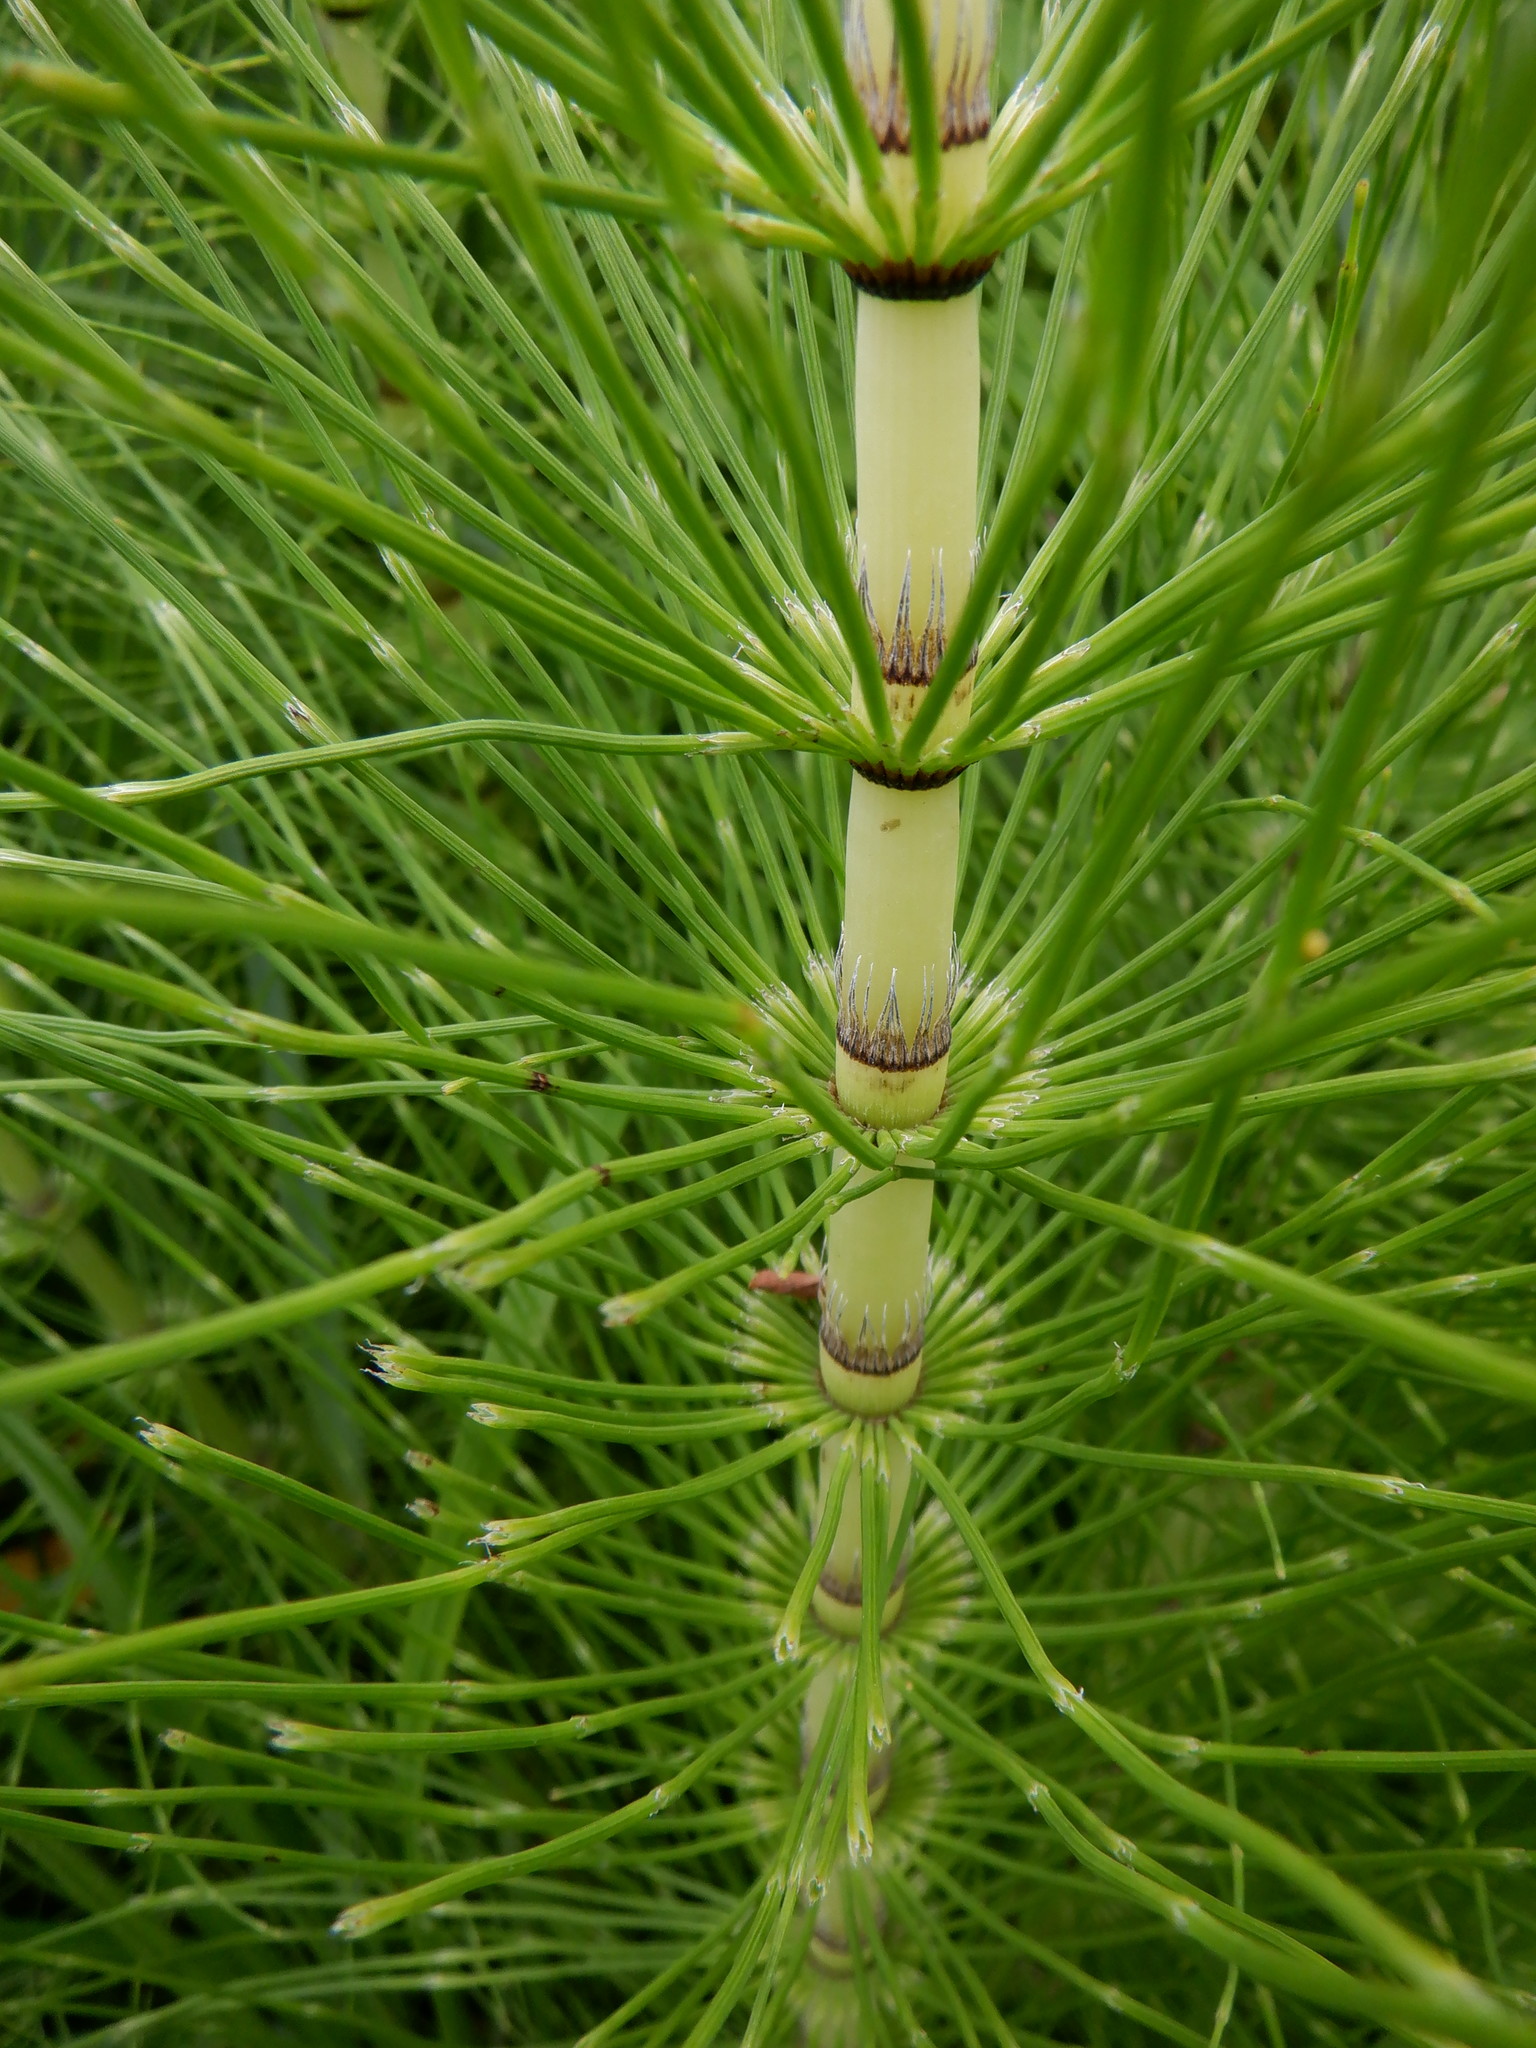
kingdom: Plantae
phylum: Tracheophyta
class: Polypodiopsida
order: Equisetales
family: Equisetaceae
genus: Equisetum
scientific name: Equisetum telmateia
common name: Great horsetail
